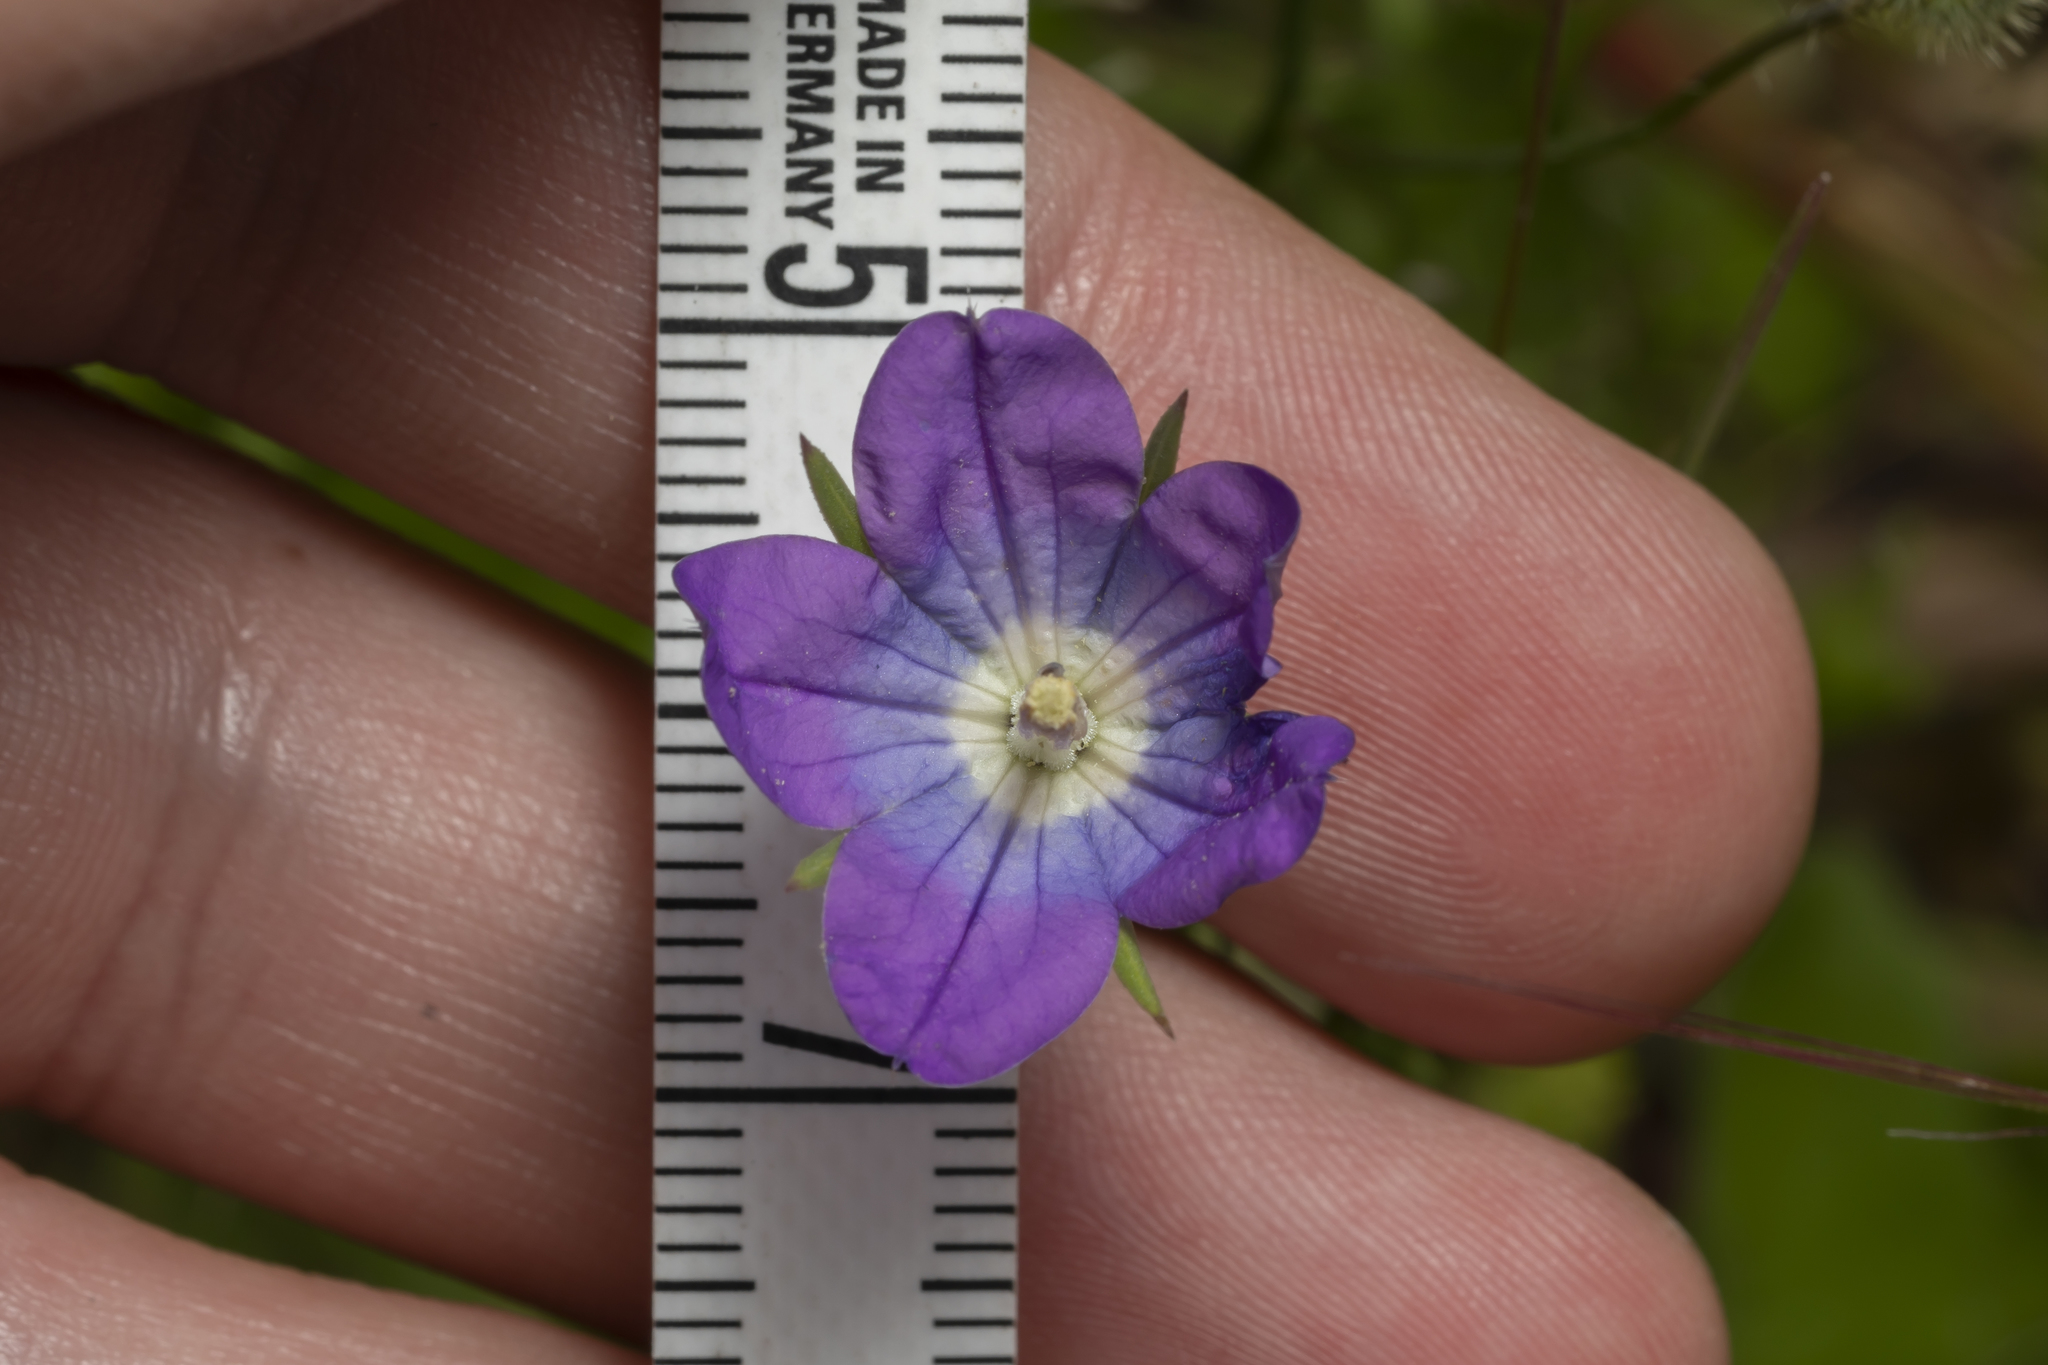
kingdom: Plantae
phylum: Tracheophyta
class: Magnoliopsida
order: Asterales
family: Campanulaceae
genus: Legousia
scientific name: Legousia pentagonia
